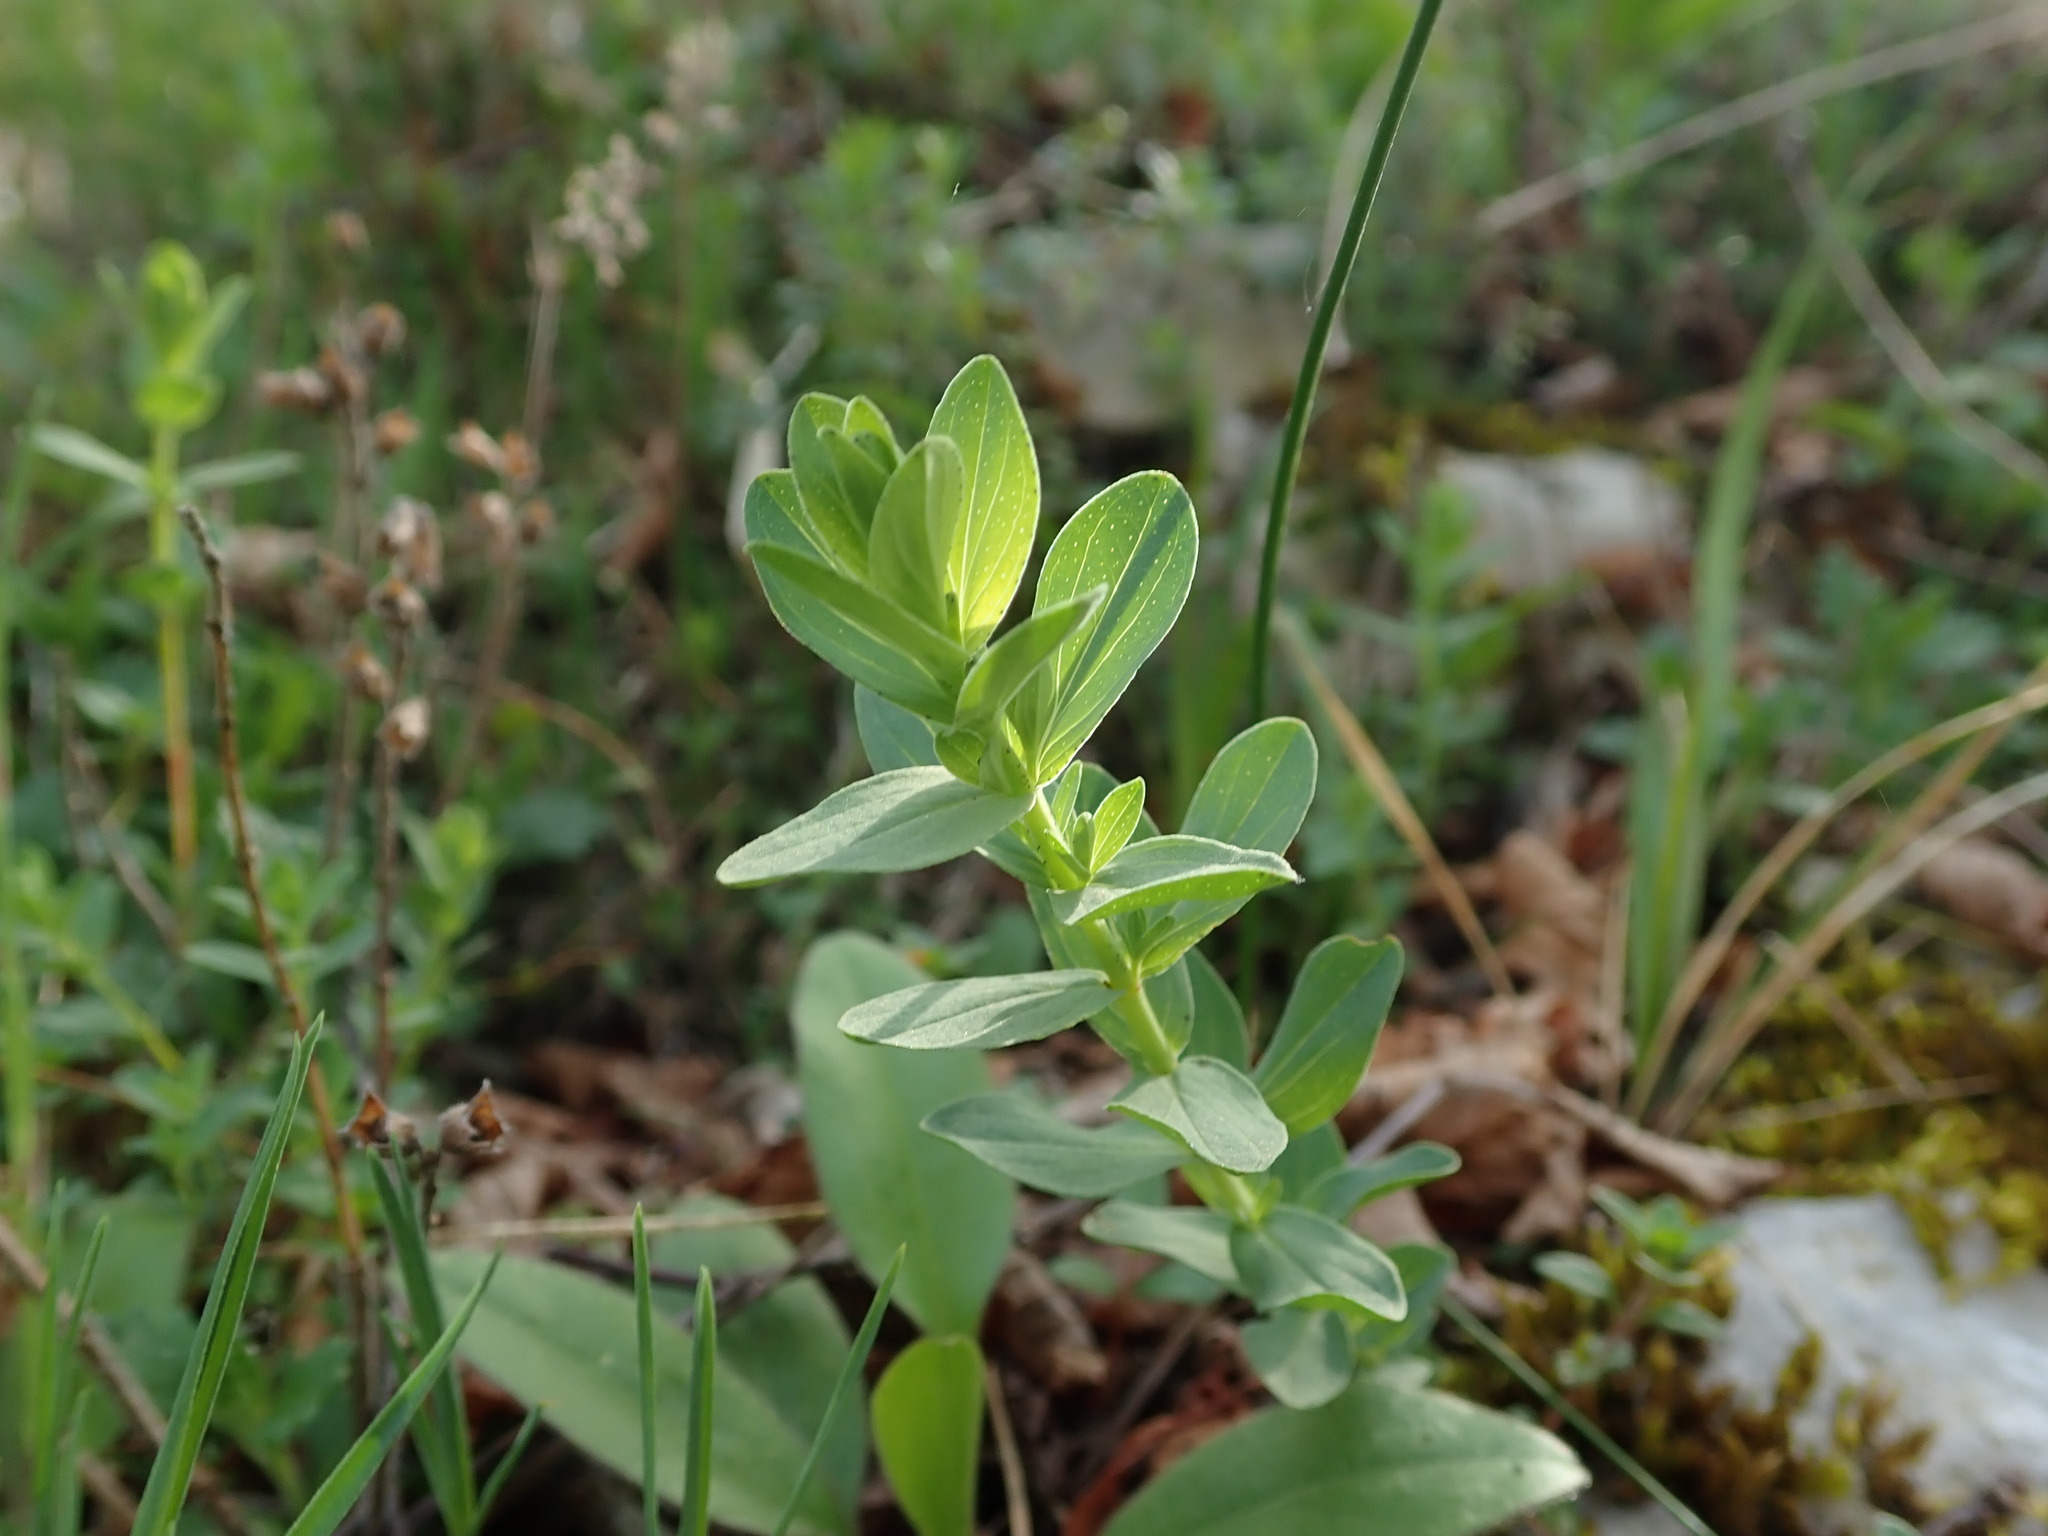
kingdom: Plantae
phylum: Tracheophyta
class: Magnoliopsida
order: Malpighiales
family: Hypericaceae
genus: Hypericum
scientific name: Hypericum perforatum
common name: Common st. johnswort
